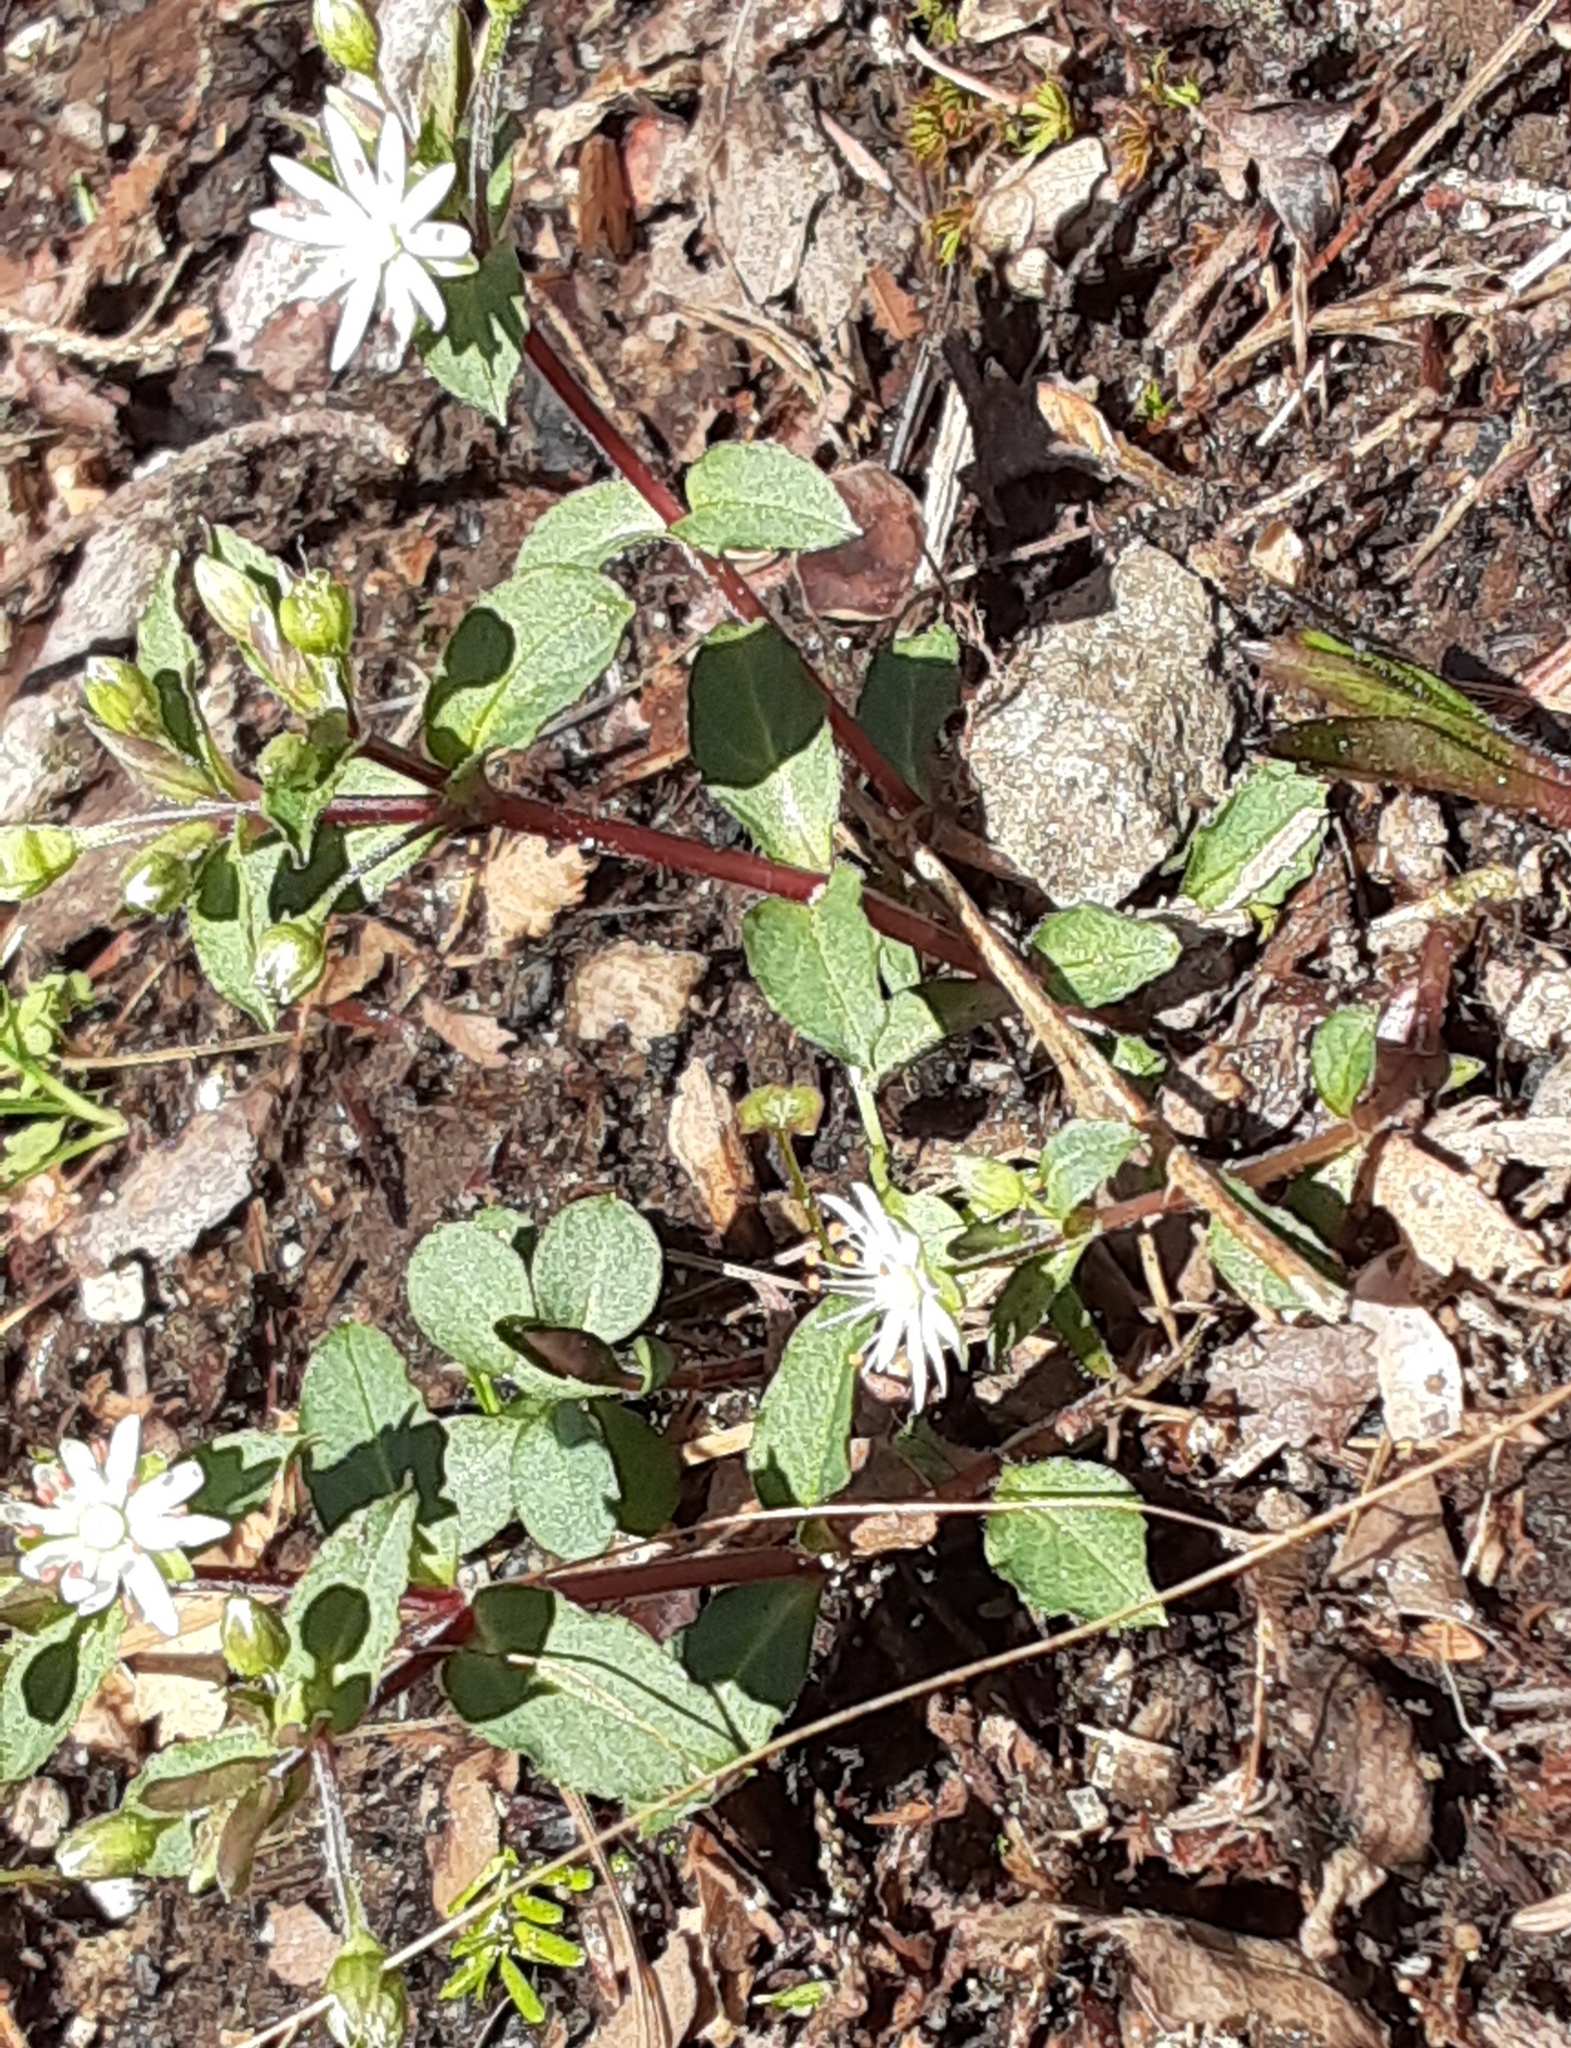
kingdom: Plantae
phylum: Tracheophyta
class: Magnoliopsida
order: Caryophyllales
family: Caryophyllaceae
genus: Stellaria
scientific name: Stellaria pubera
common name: Star chickweed
